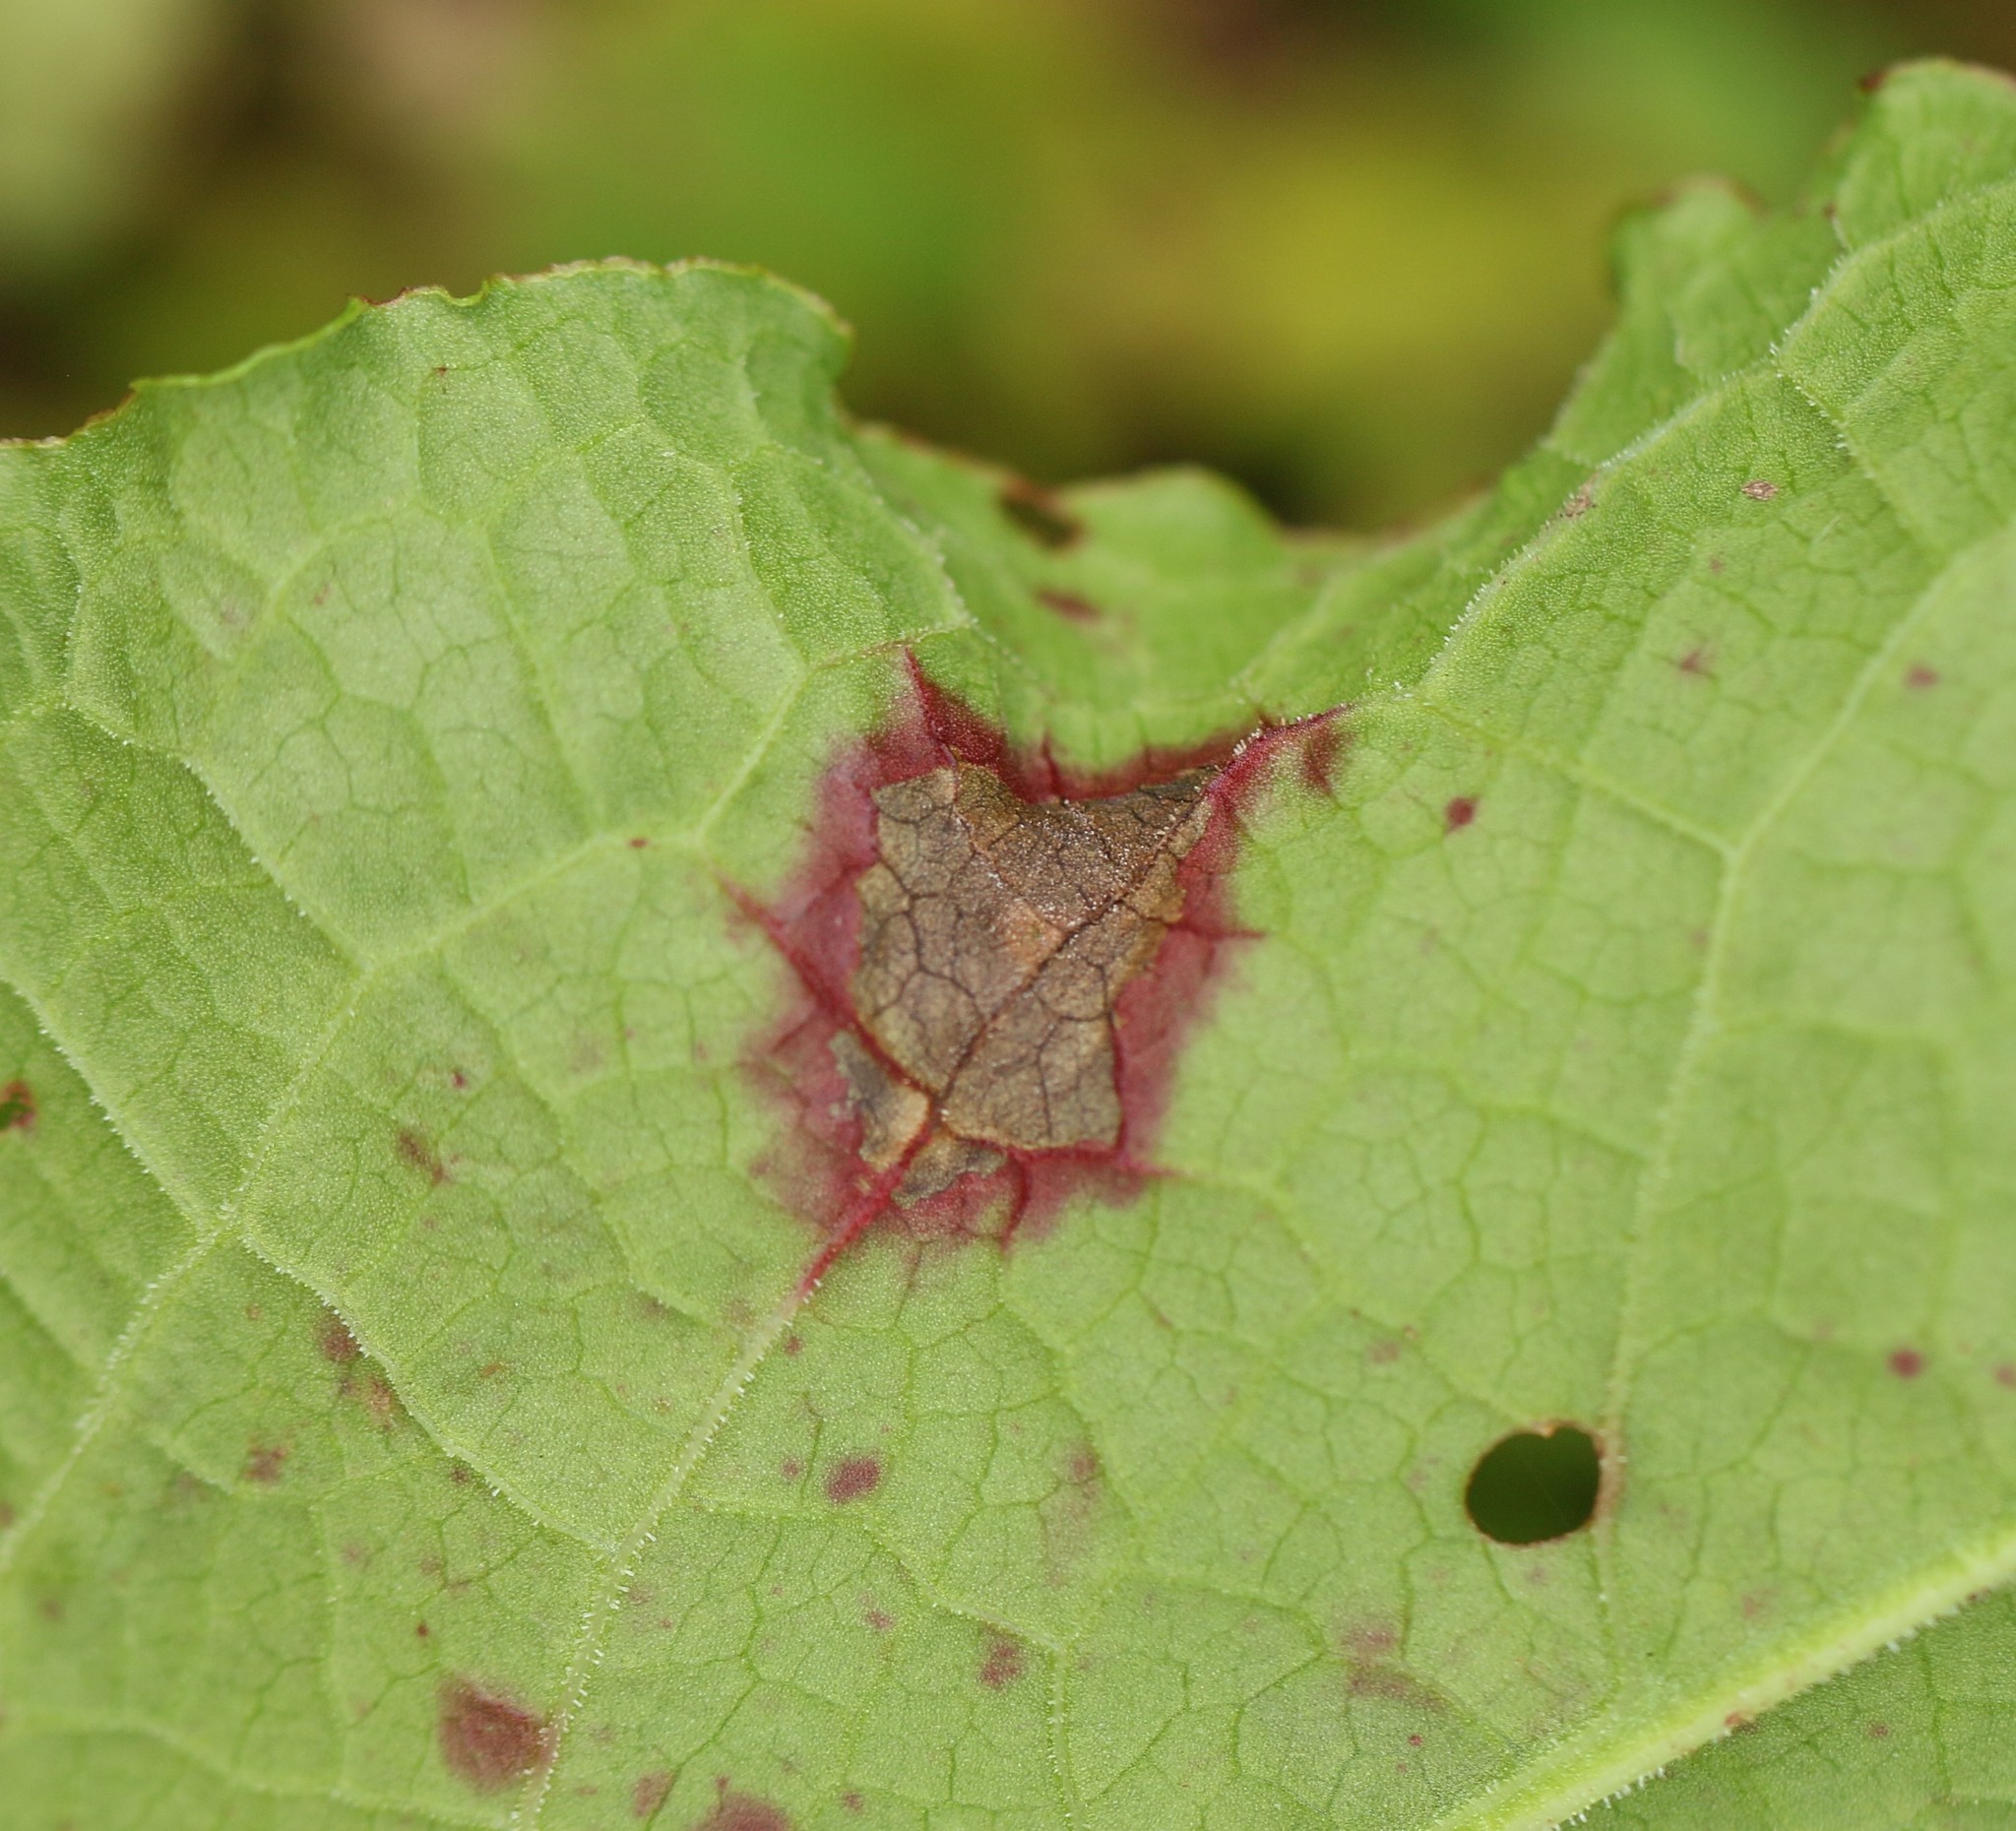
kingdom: Fungi
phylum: Ascomycota
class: Dothideomycetes
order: Mycosphaerellales
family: Mycosphaerellaceae
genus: Ramularia
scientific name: Ramularia rubella
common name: Red dock spot
